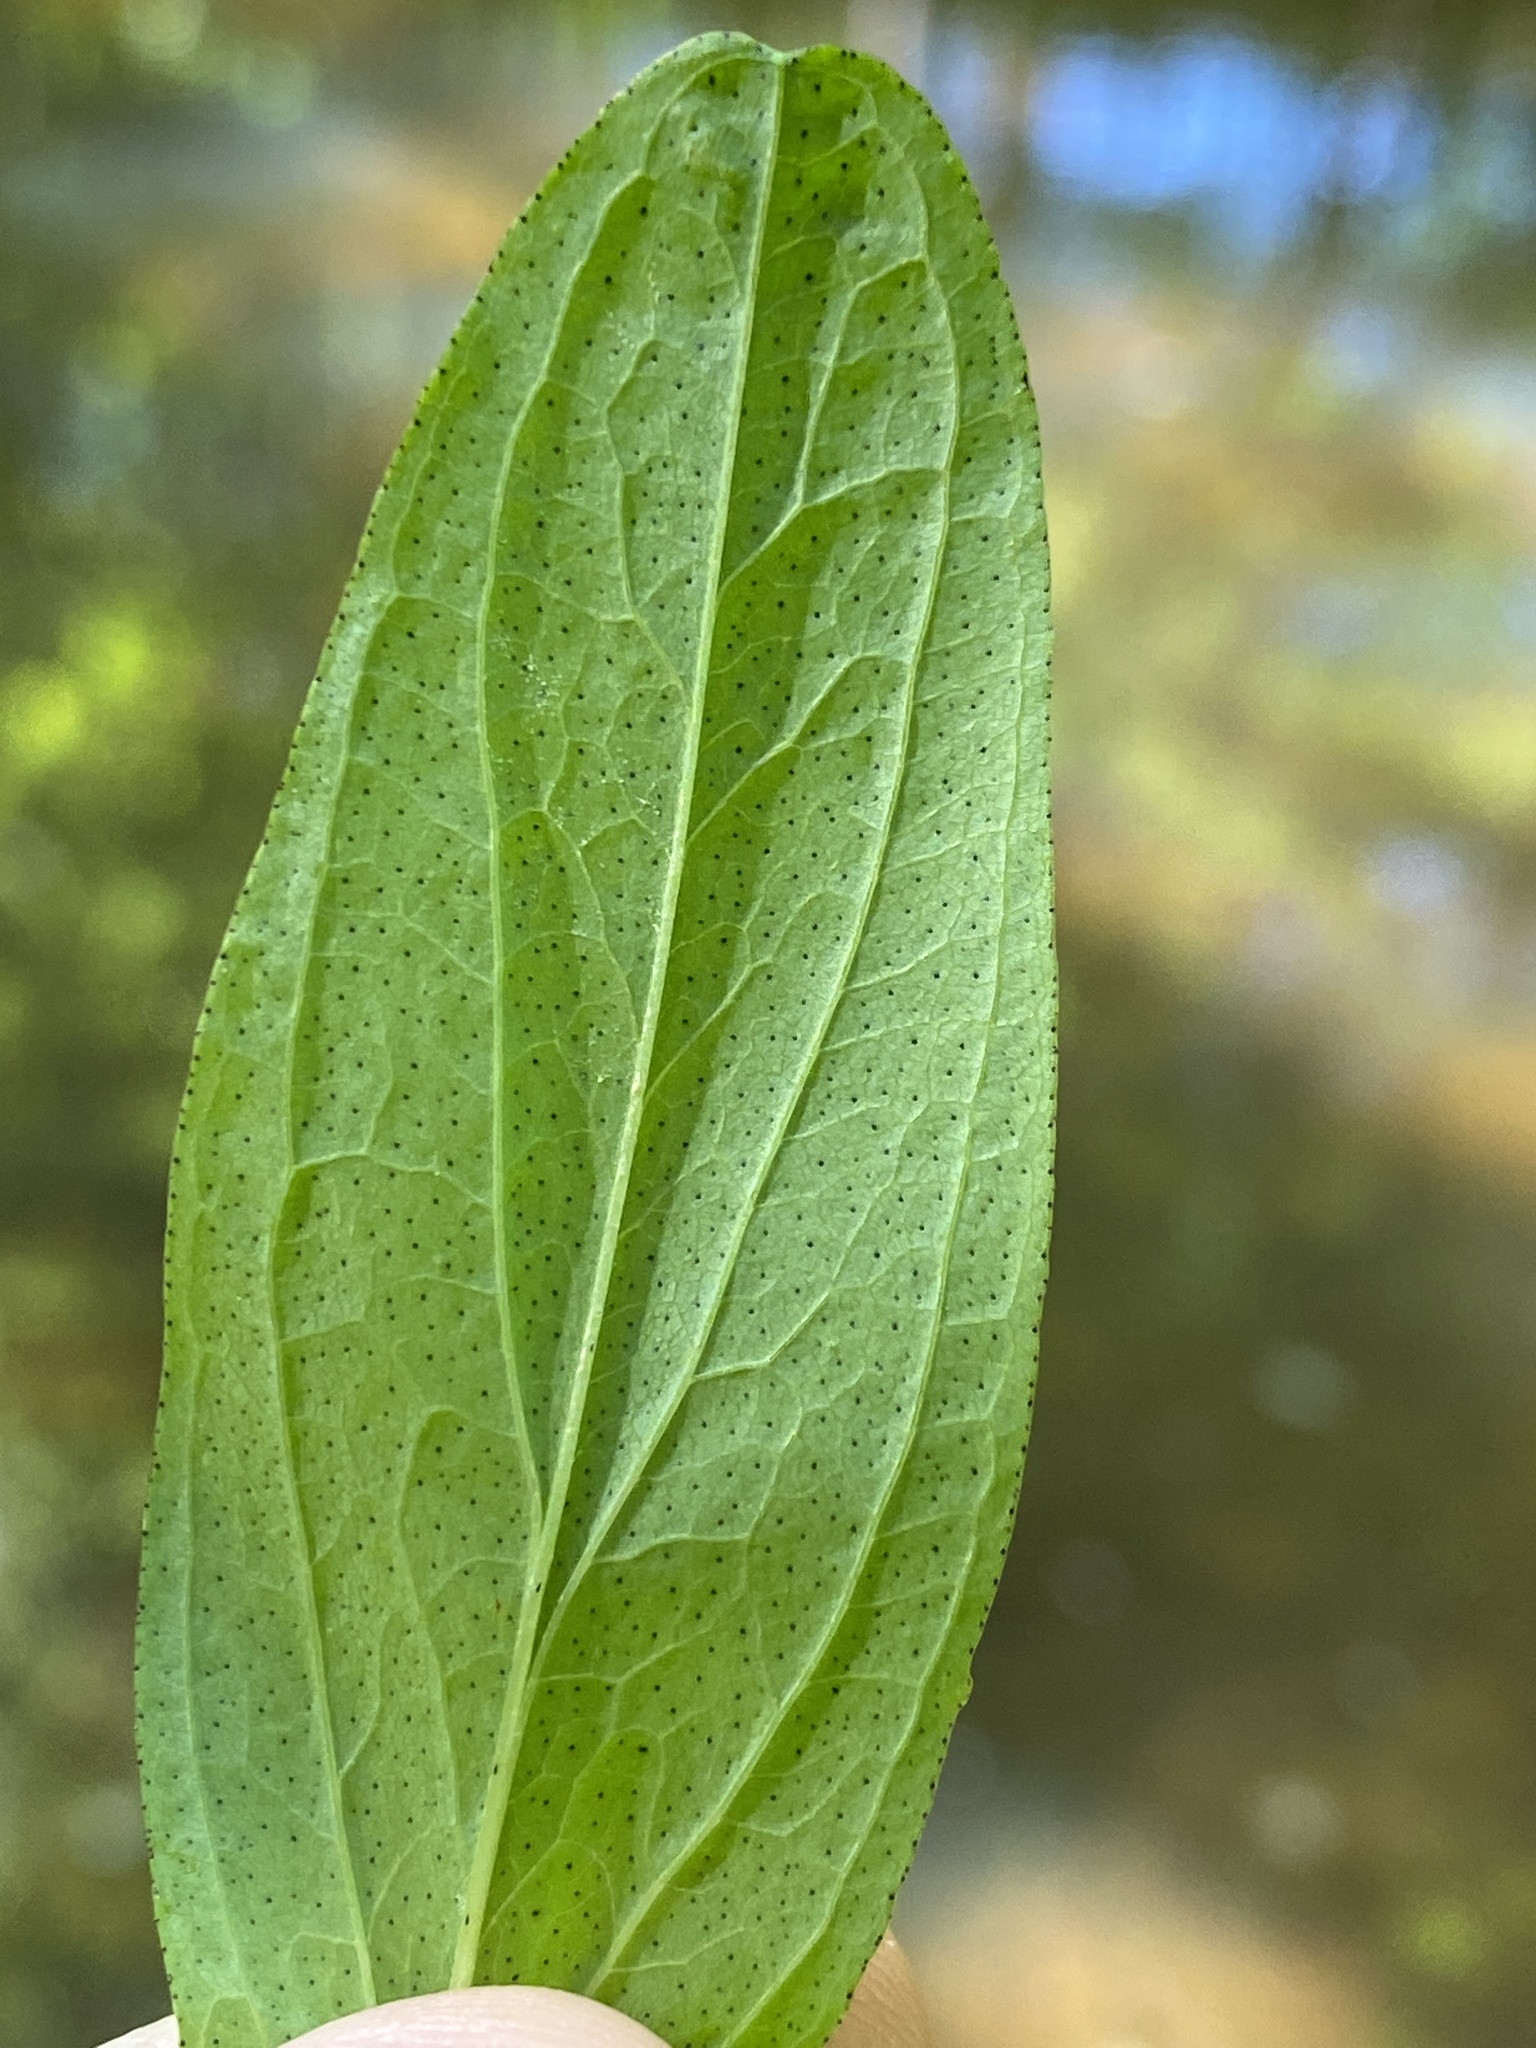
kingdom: Plantae
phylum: Tracheophyta
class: Magnoliopsida
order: Malpighiales
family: Hypericaceae
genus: Hypericum
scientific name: Hypericum punctatum
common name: Spotted st. john's-wort
